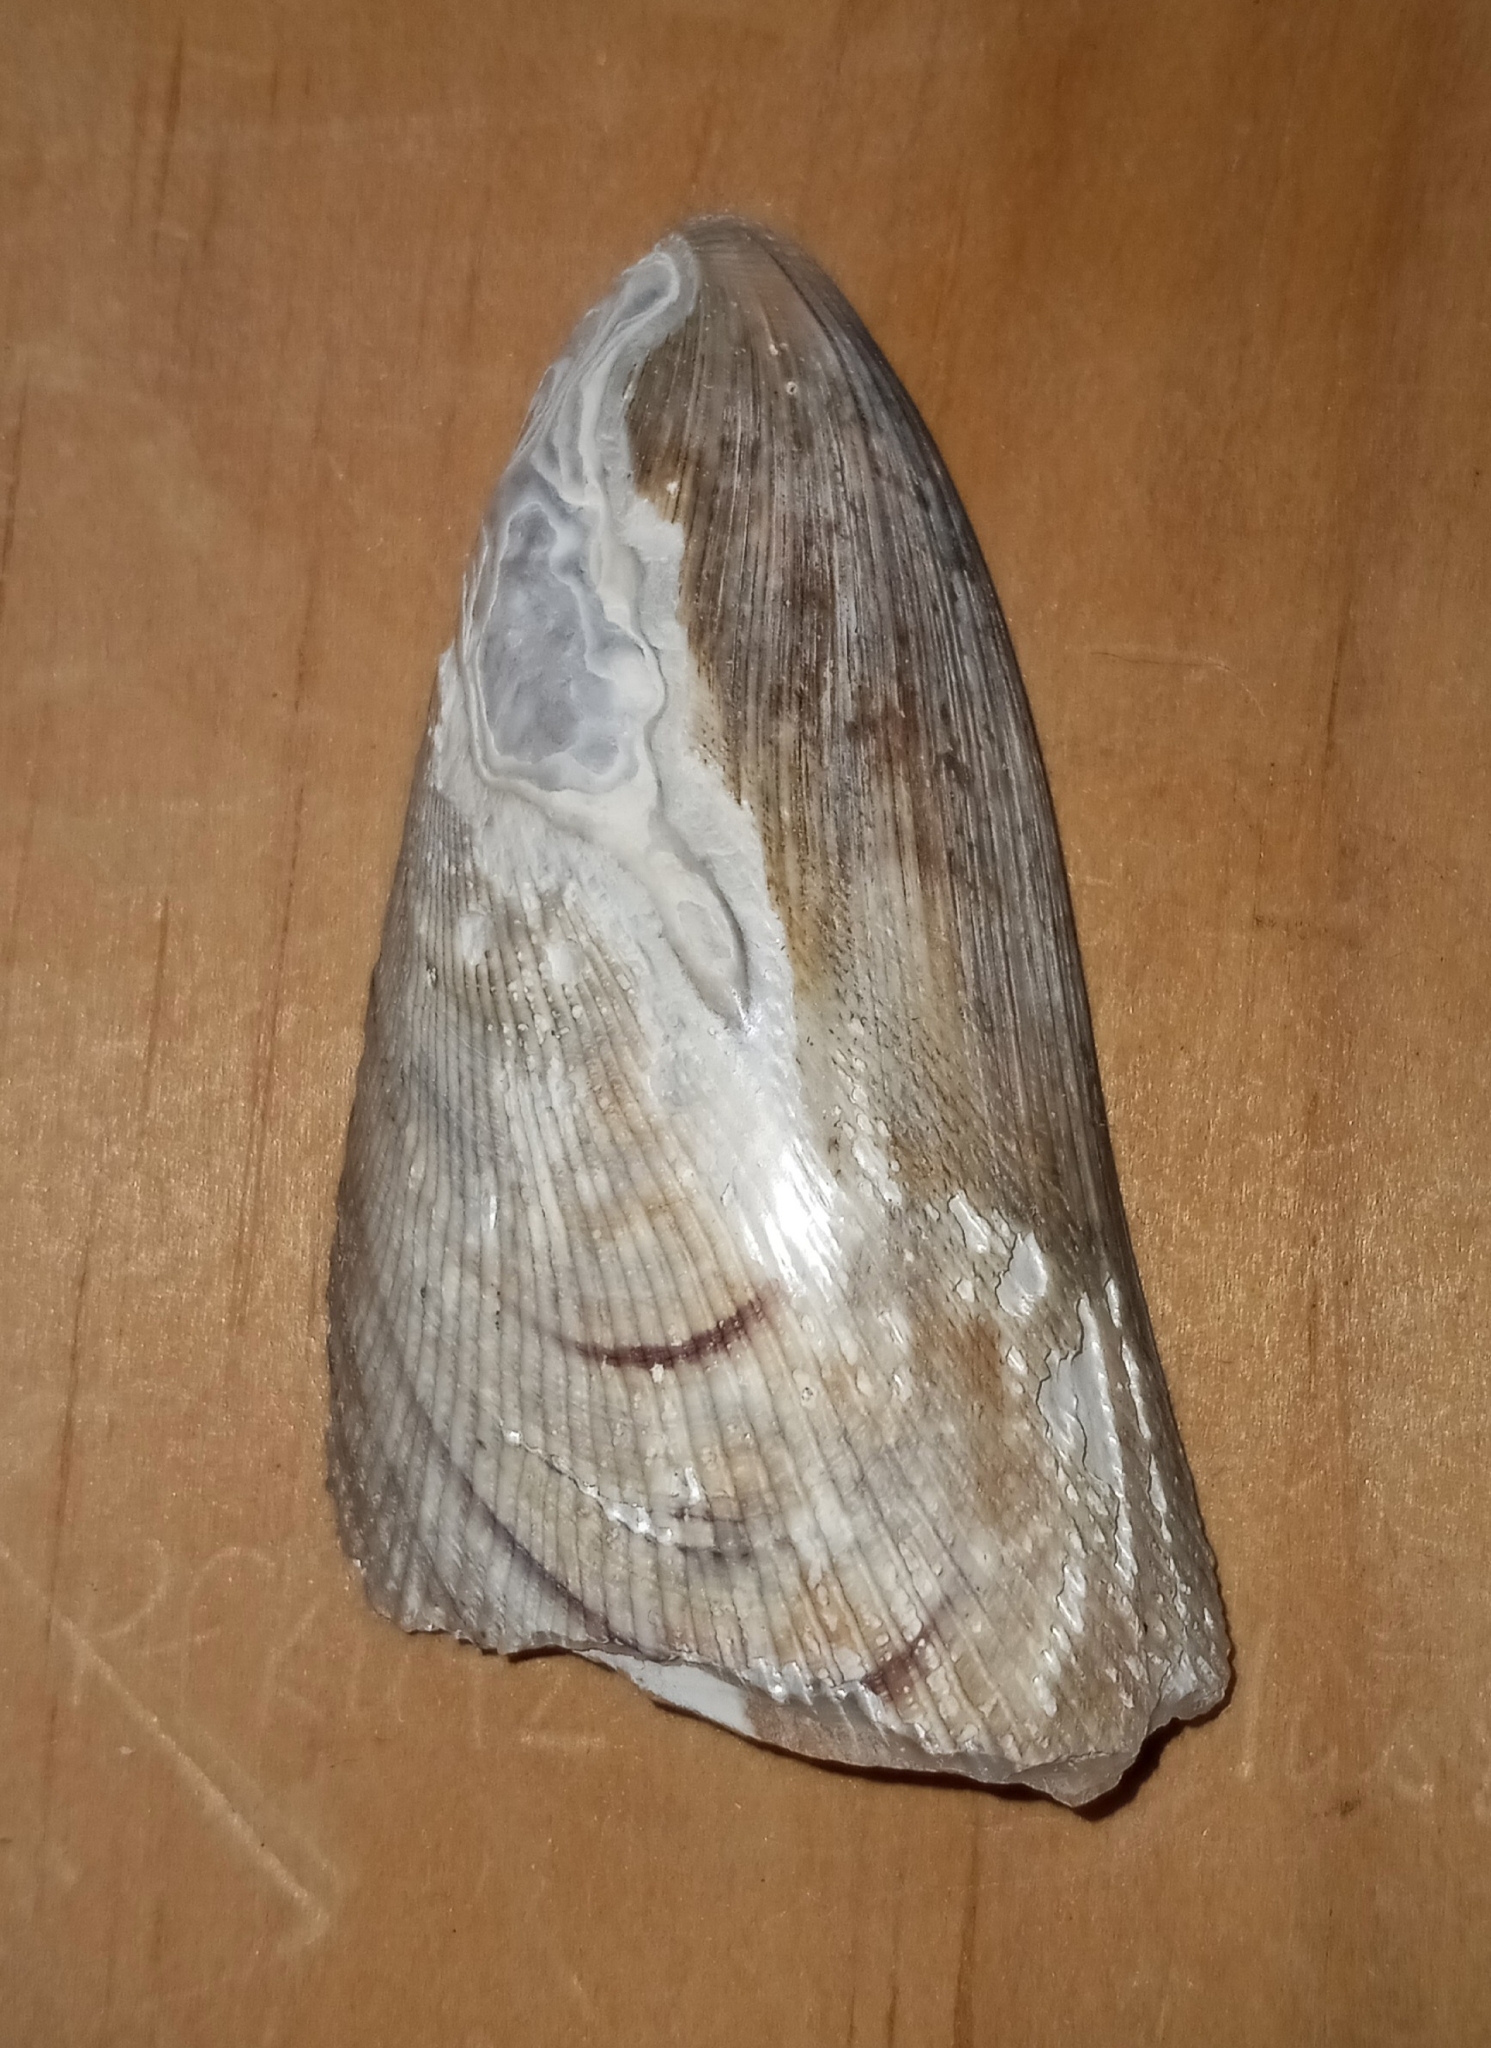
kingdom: Animalia
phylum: Mollusca
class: Bivalvia
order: Mytilida
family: Mytilidae
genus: Geukensia
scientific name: Geukensia demissa
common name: Ribbed mussel
